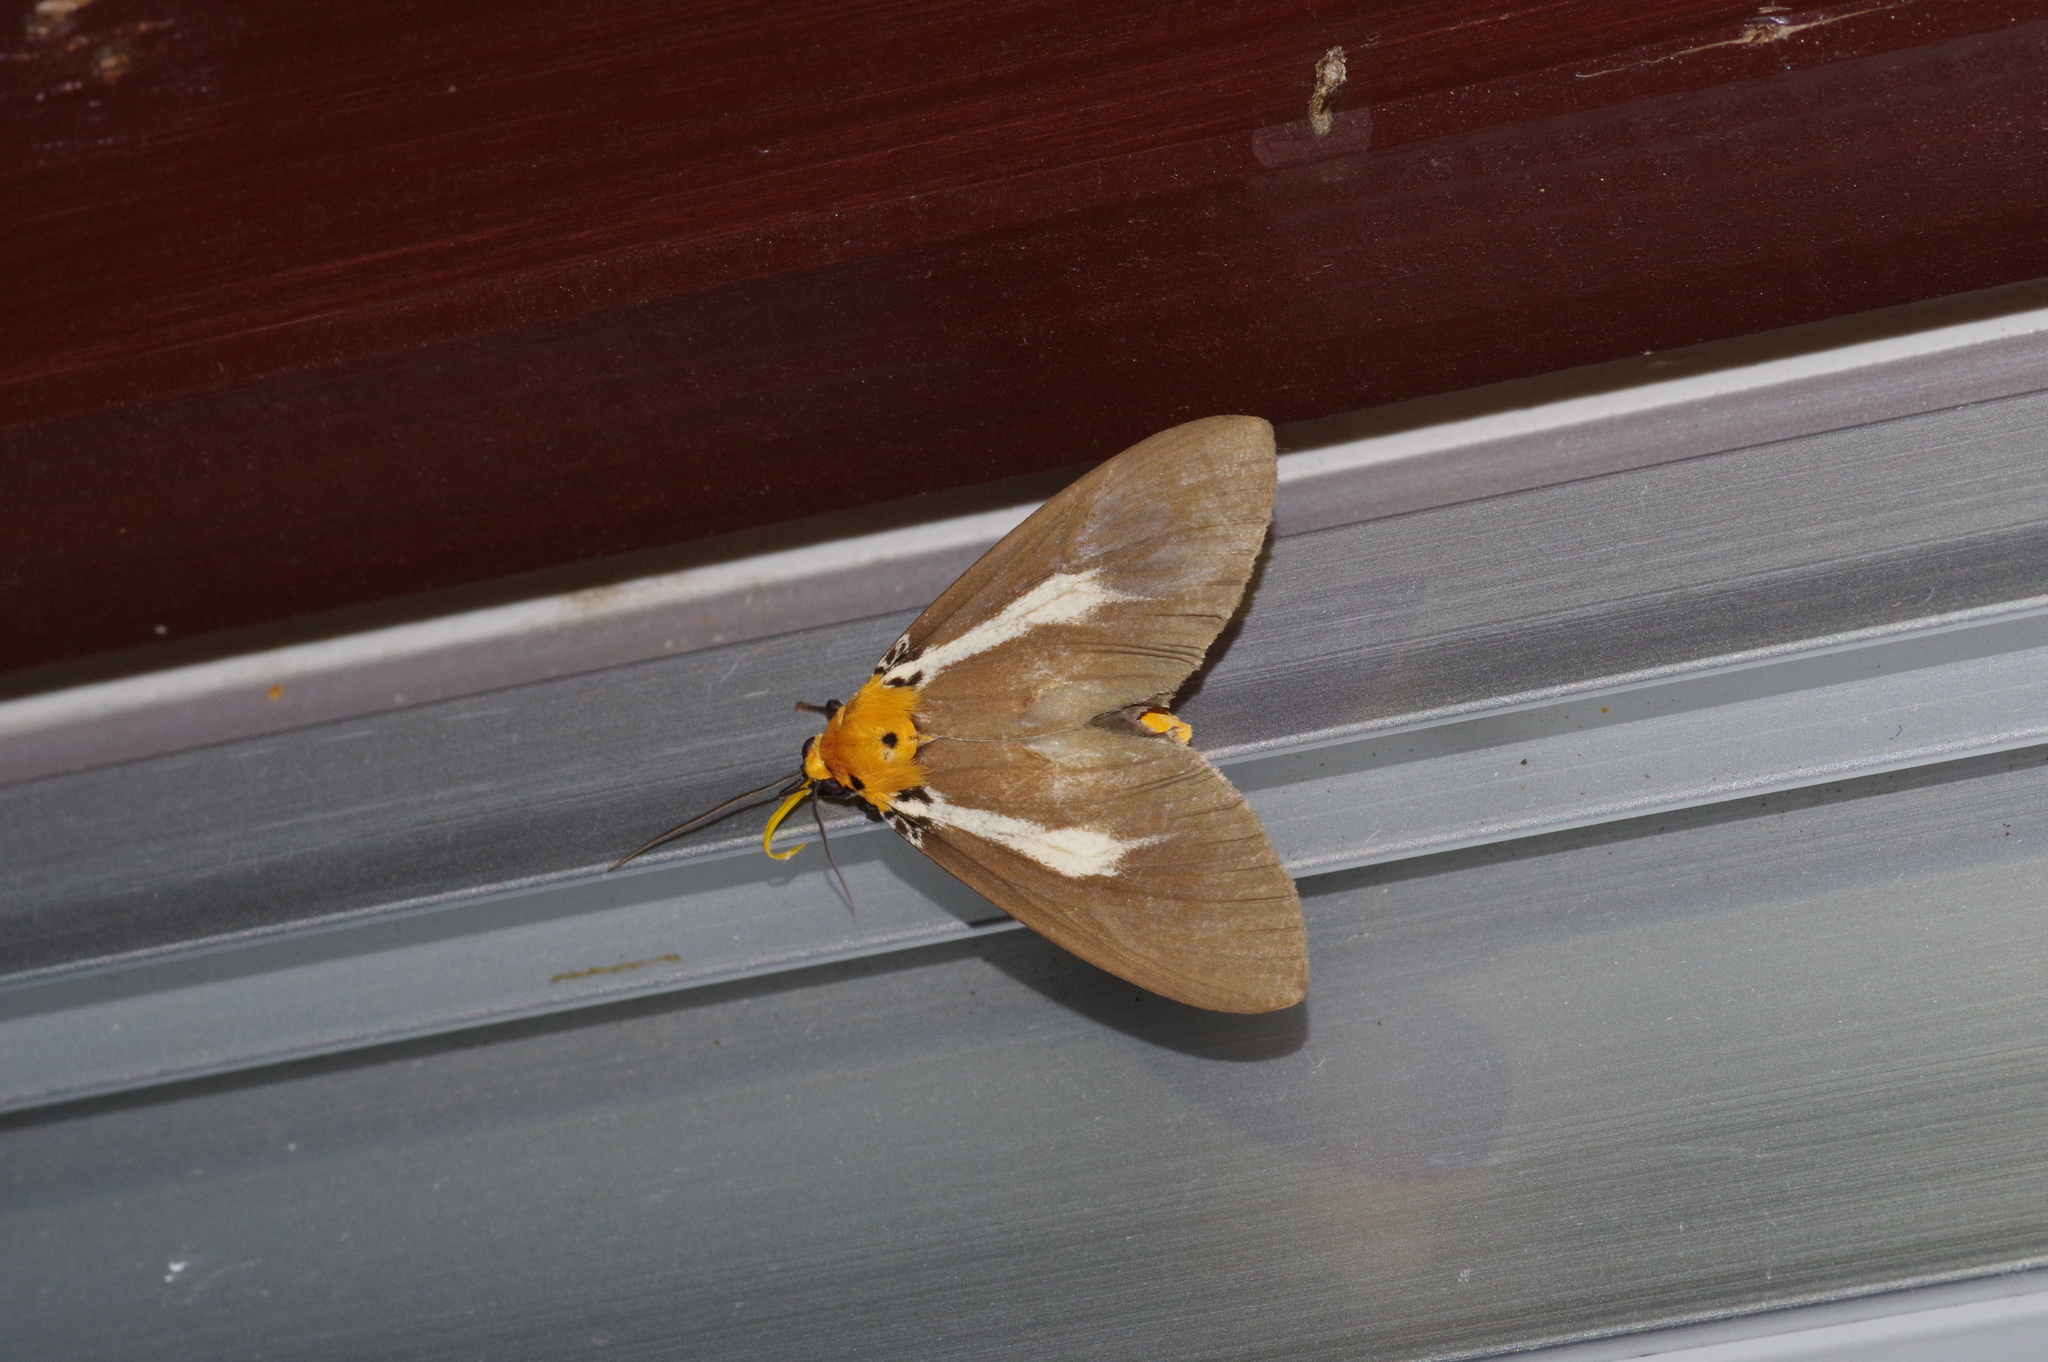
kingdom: Animalia
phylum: Arthropoda
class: Insecta
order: Lepidoptera
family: Erebidae
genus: Asota
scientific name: Asota heliconia
